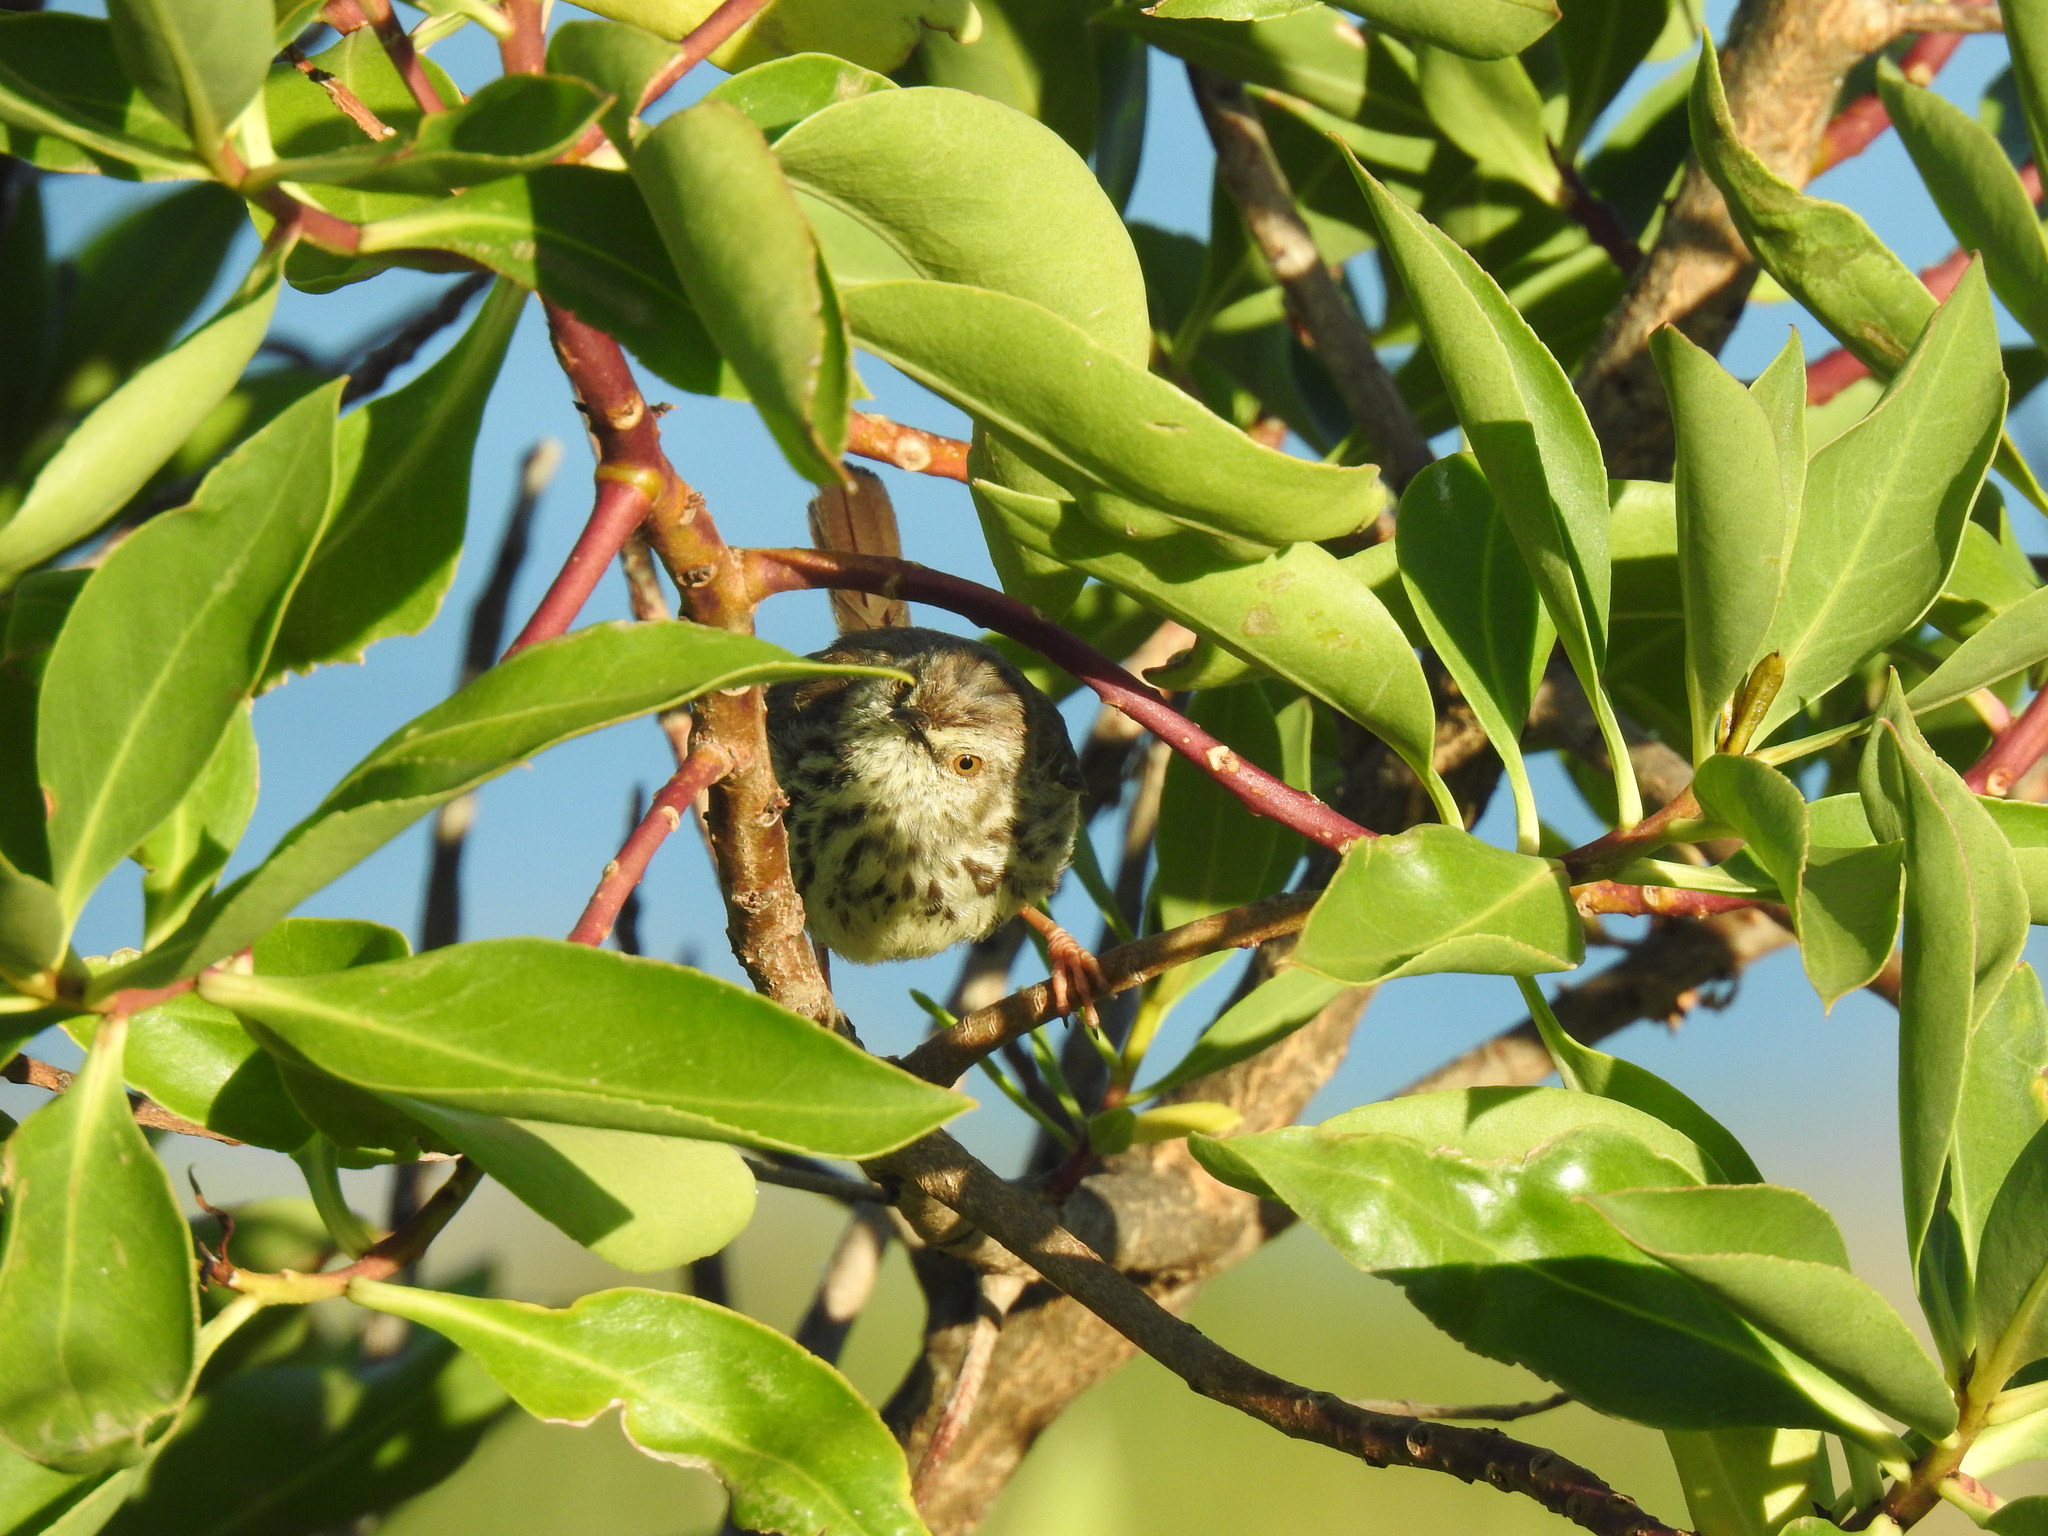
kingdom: Animalia
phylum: Chordata
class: Aves
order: Passeriformes
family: Cisticolidae
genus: Prinia
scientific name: Prinia maculosa
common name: Karoo prinia
